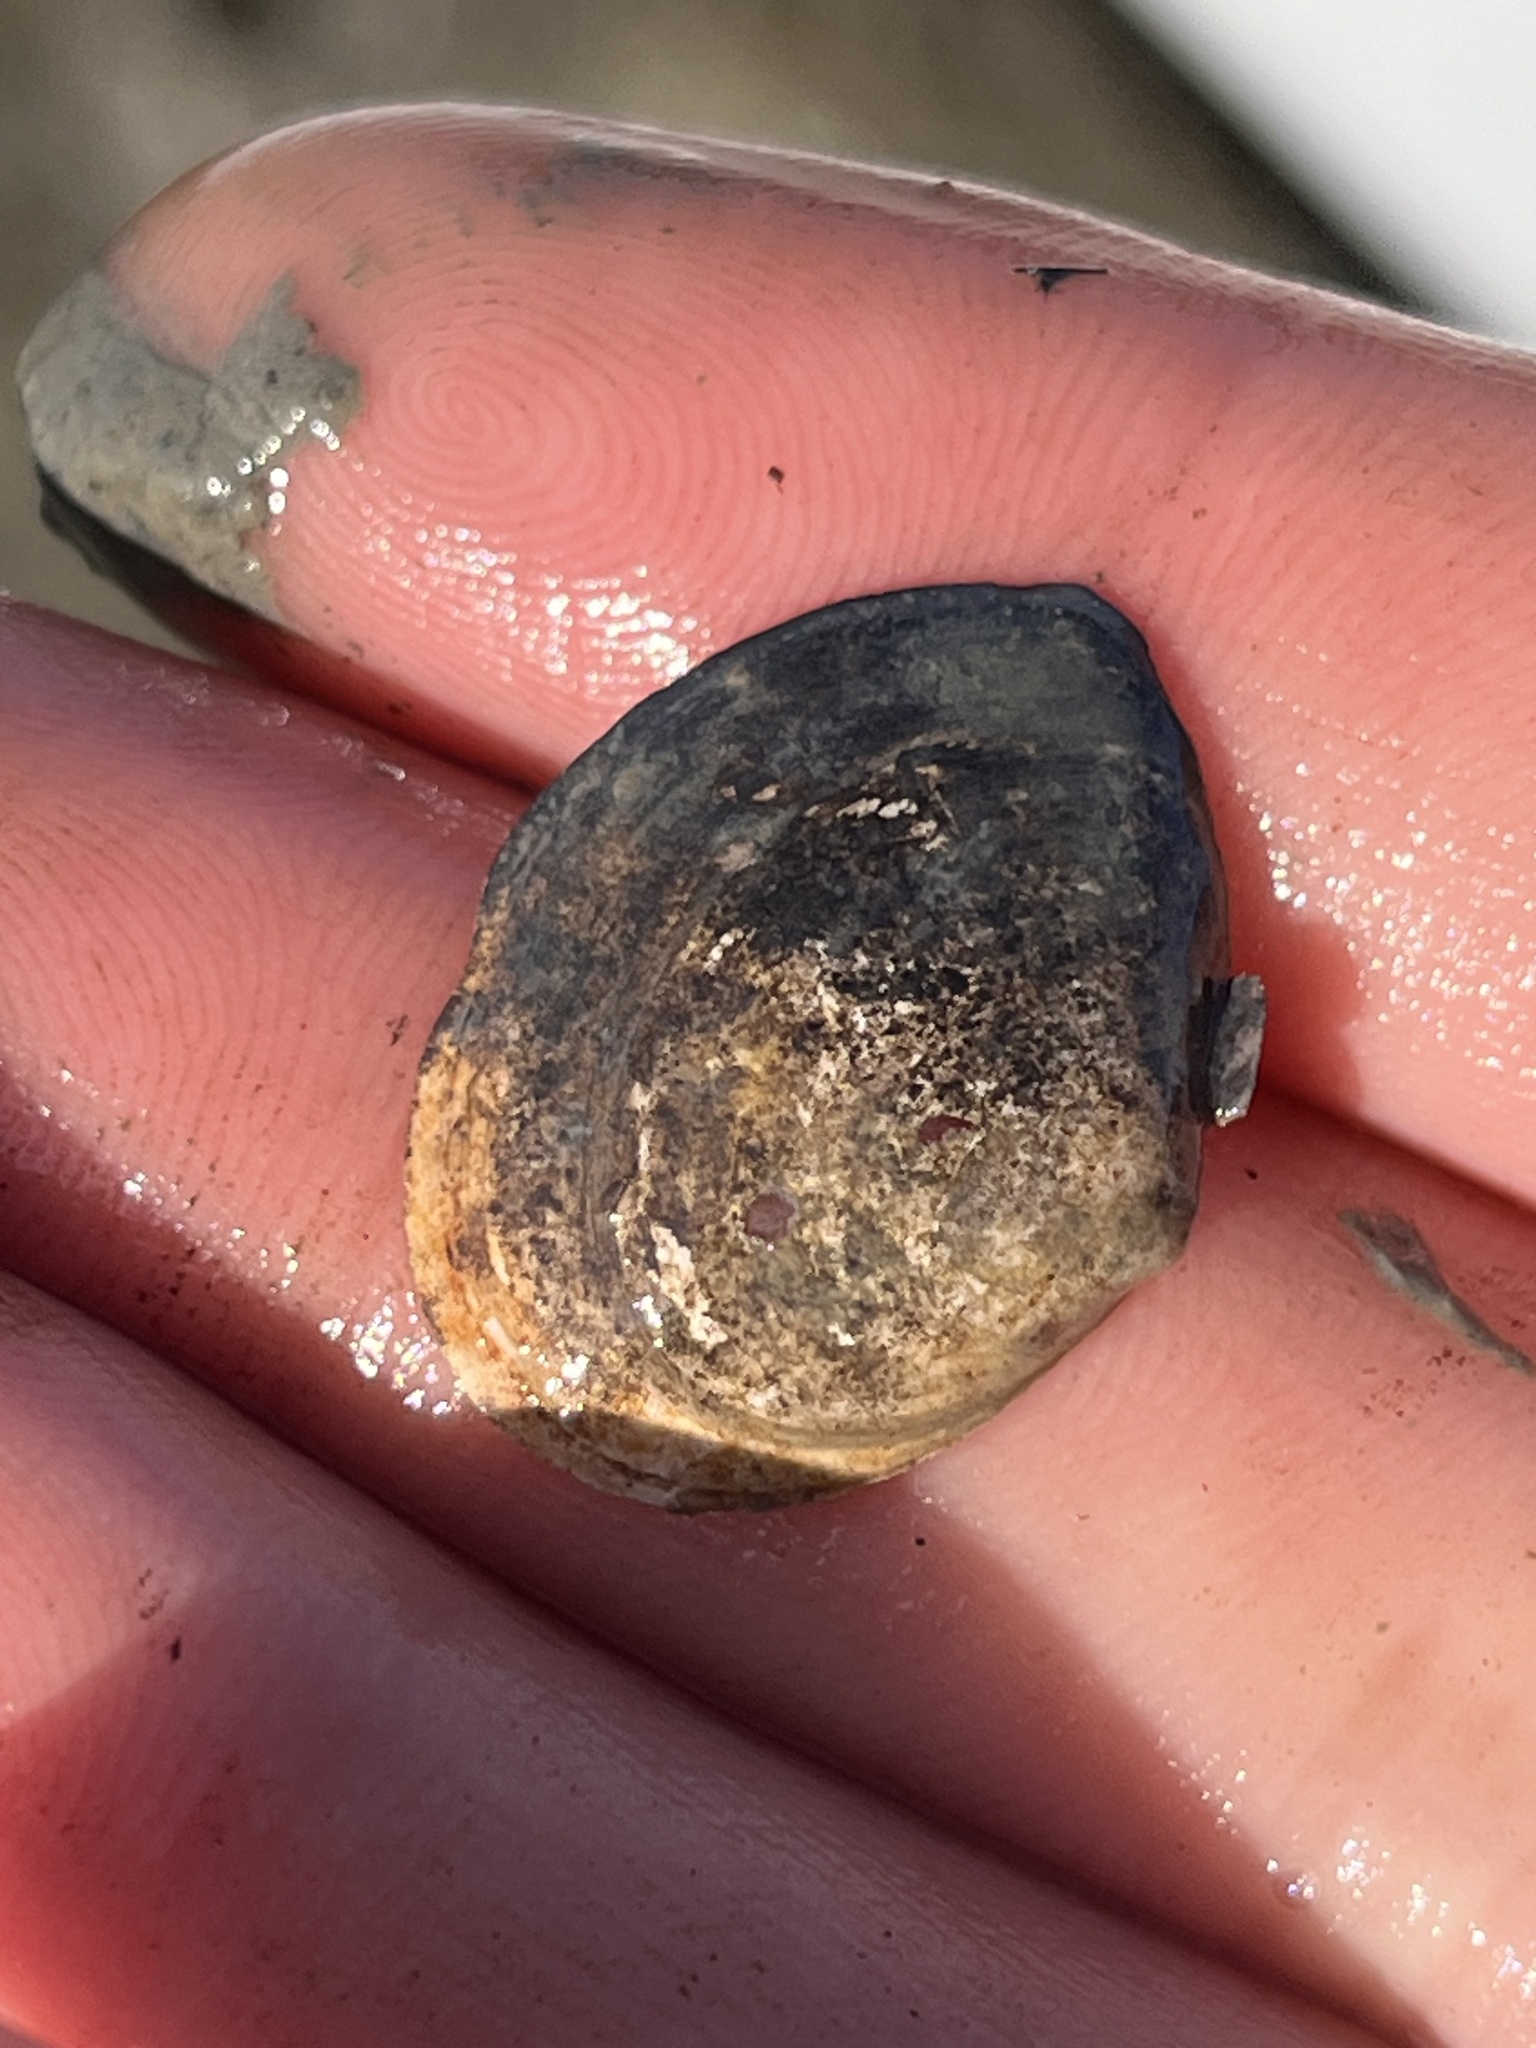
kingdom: Animalia
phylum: Mollusca
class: Bivalvia
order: Cardiida
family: Tellinidae
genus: Macoma
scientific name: Macoma petalum
